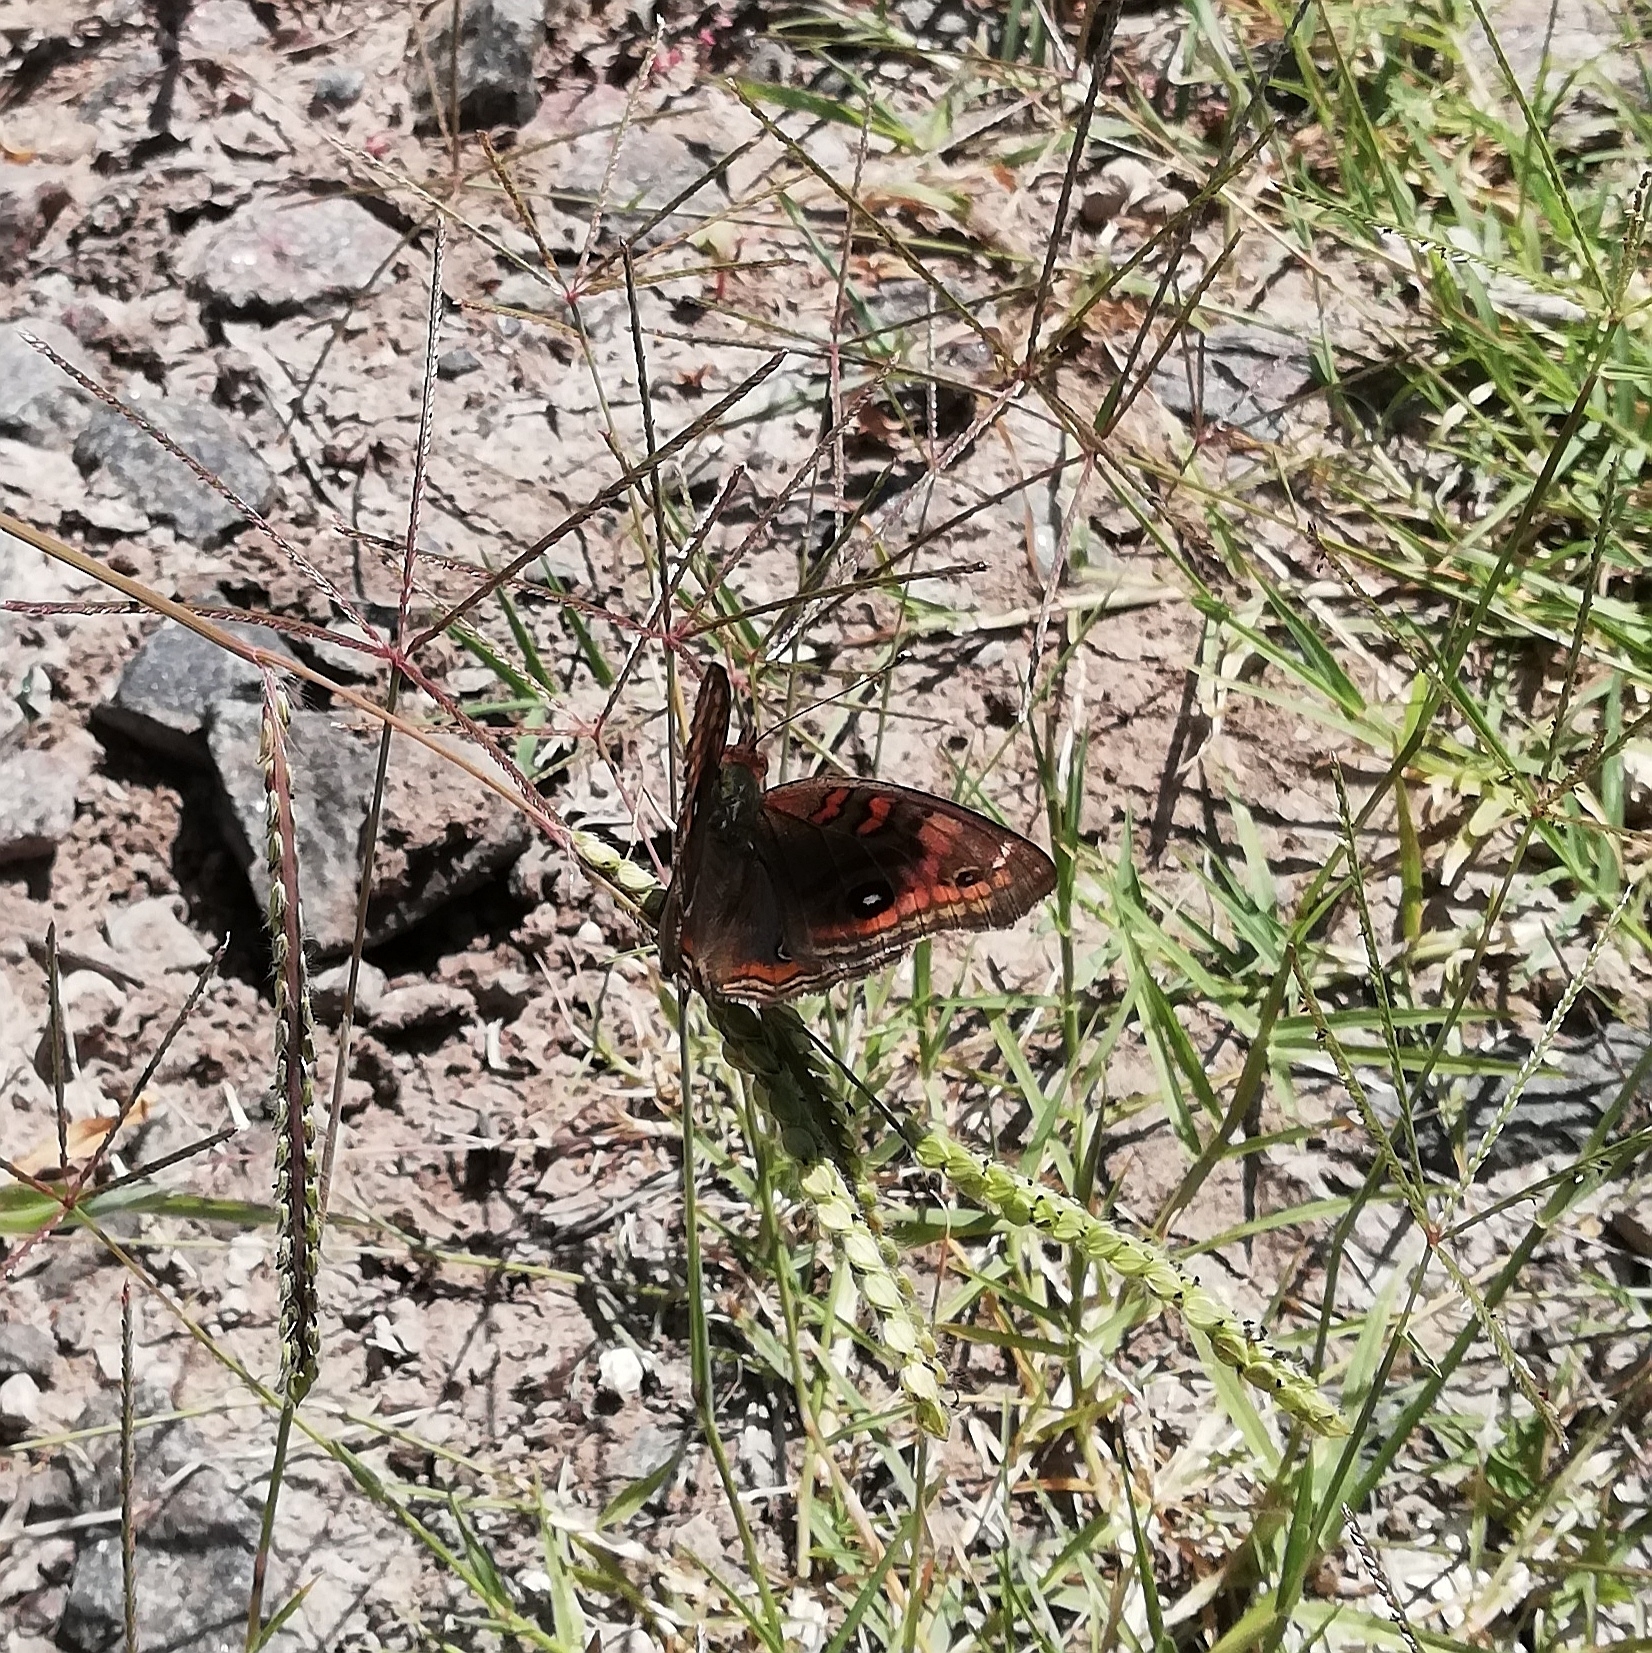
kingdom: Animalia
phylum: Arthropoda
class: Insecta
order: Lepidoptera
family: Nymphalidae
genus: Junonia
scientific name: Junonia lavinia
